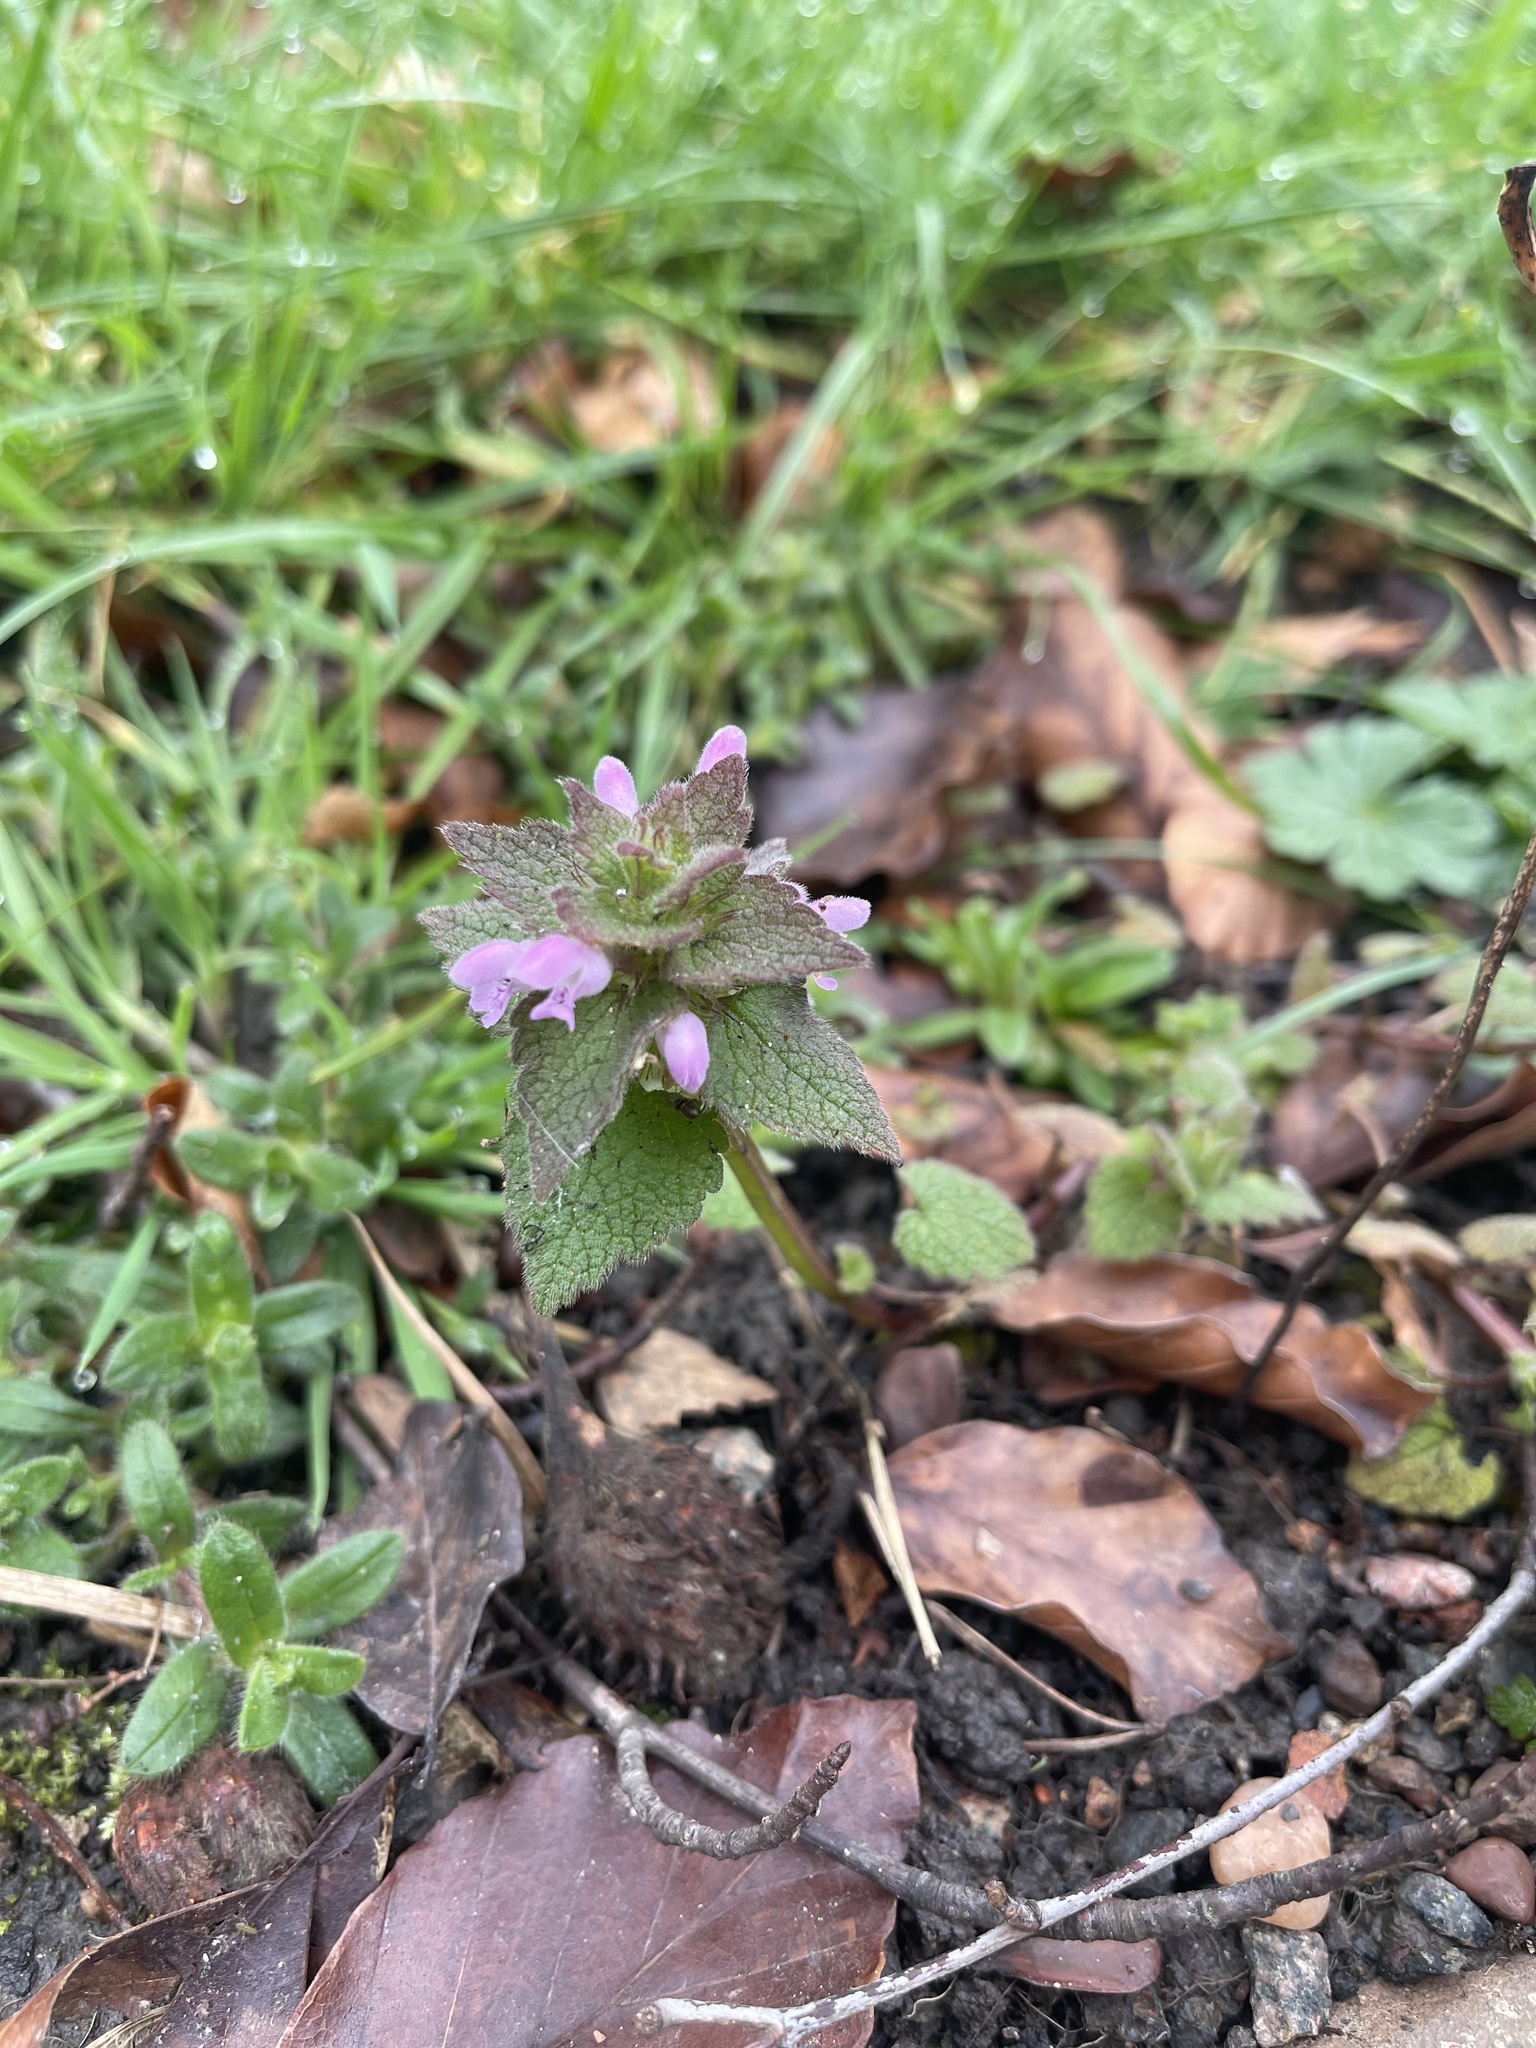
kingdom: Plantae
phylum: Tracheophyta
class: Magnoliopsida
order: Lamiales
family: Lamiaceae
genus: Lamium
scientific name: Lamium purpureum
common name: Red dead-nettle
